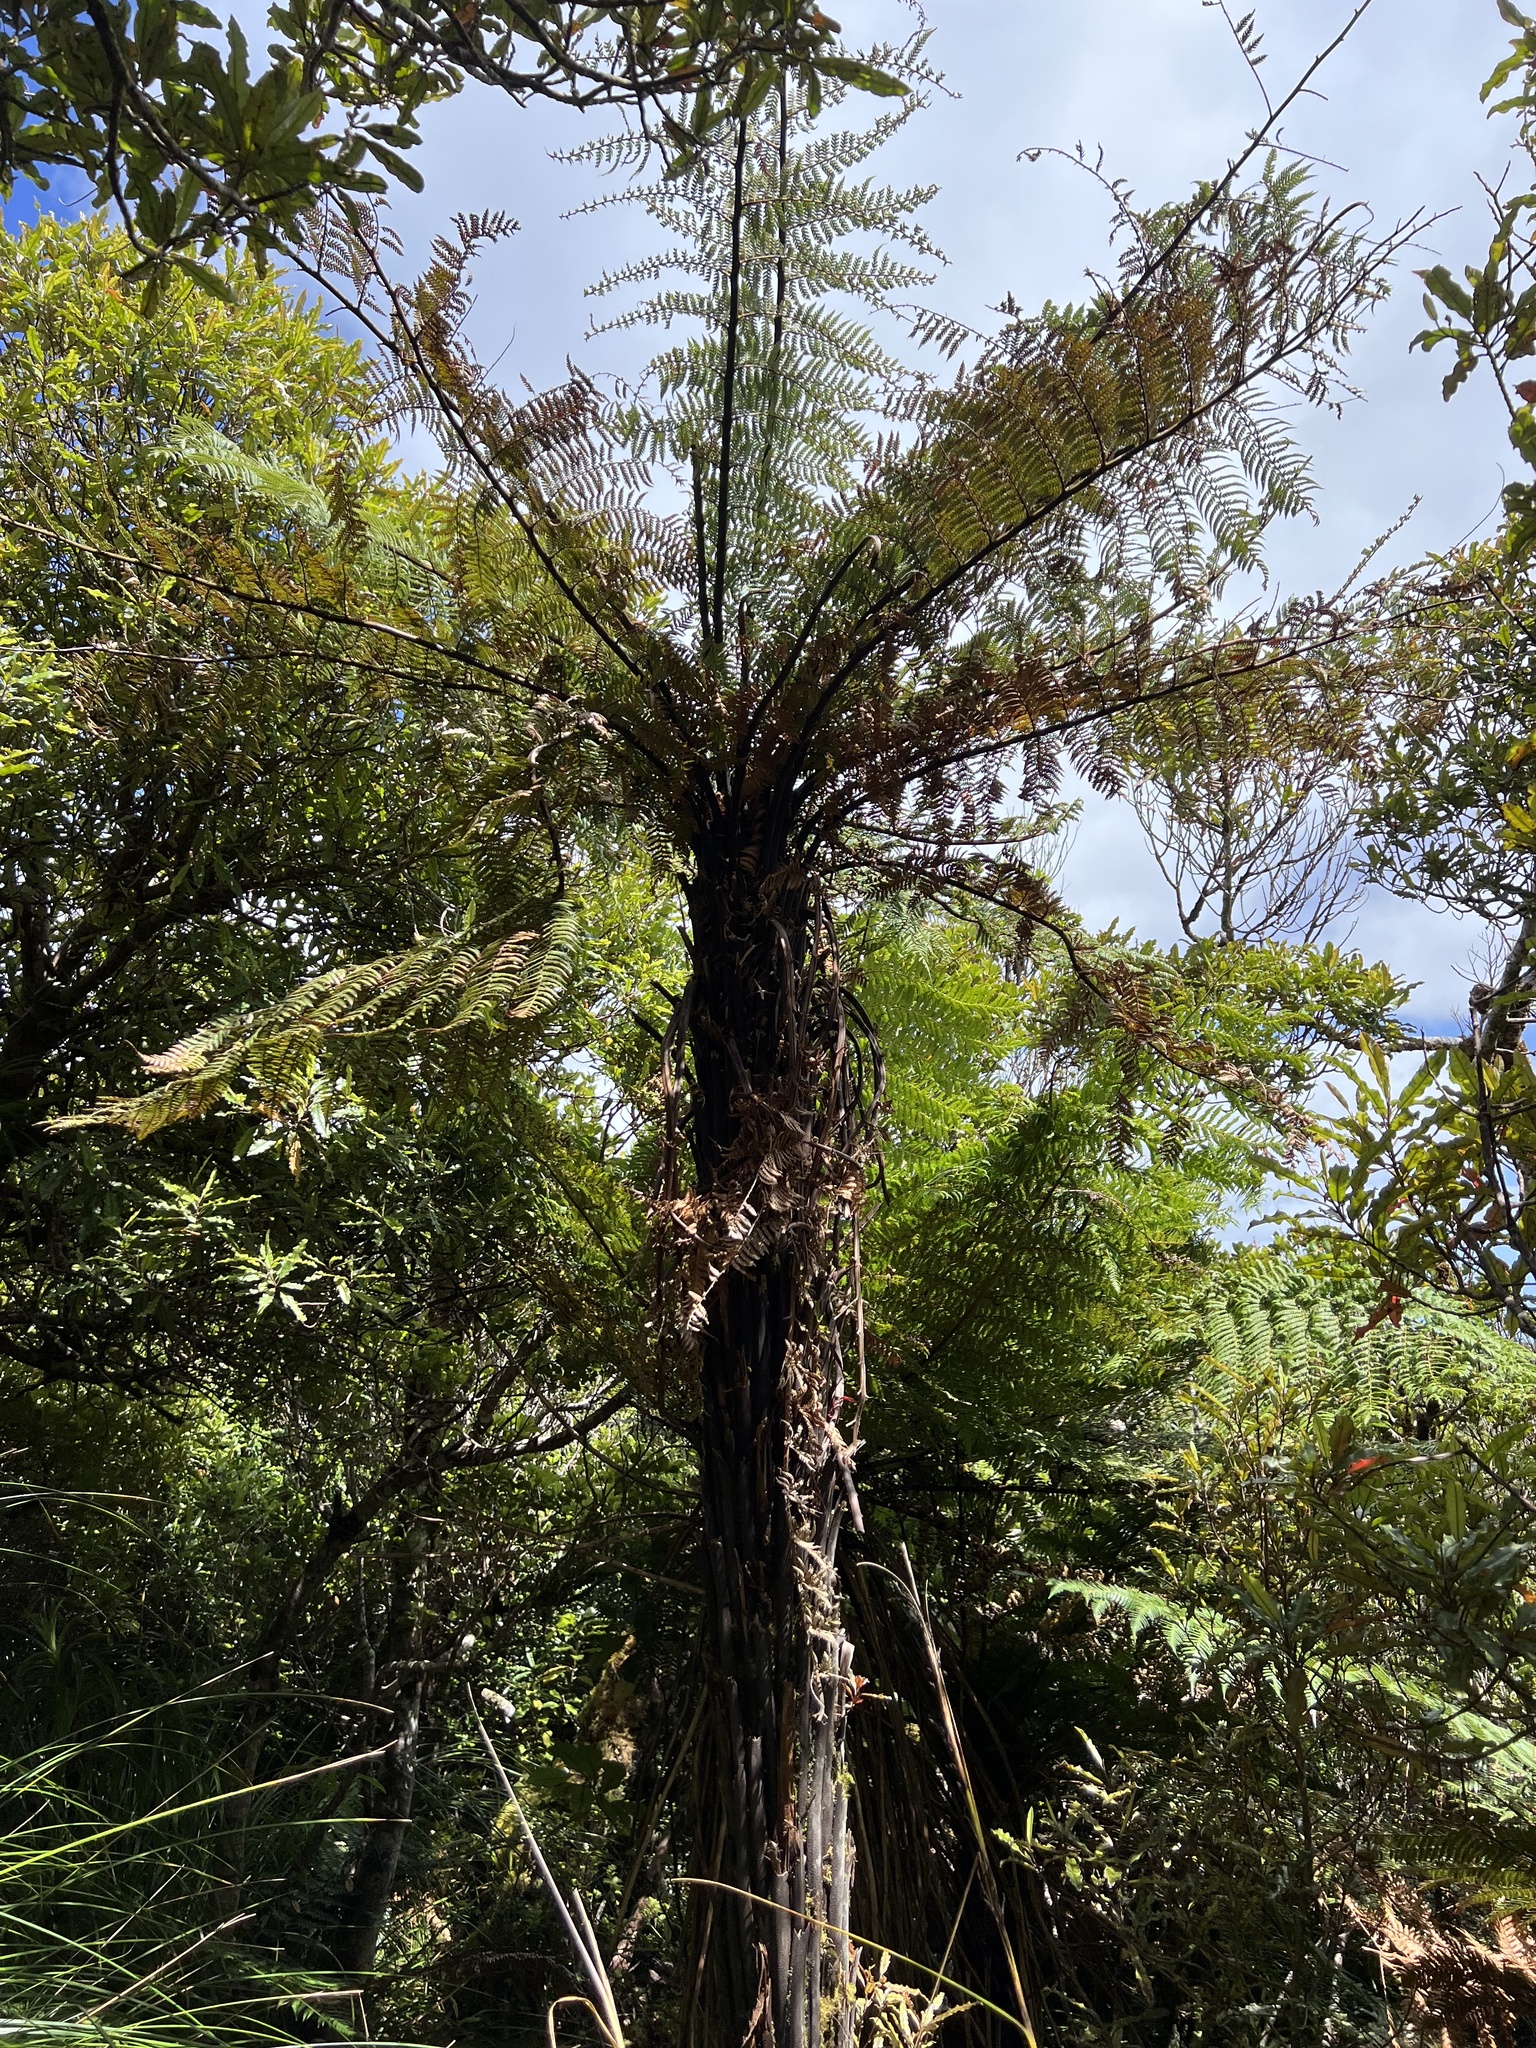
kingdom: Plantae
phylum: Tracheophyta
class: Polypodiopsida
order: Cyatheales
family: Dicksoniaceae
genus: Dicksonia
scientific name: Dicksonia squarrosa
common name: Hard treefern
